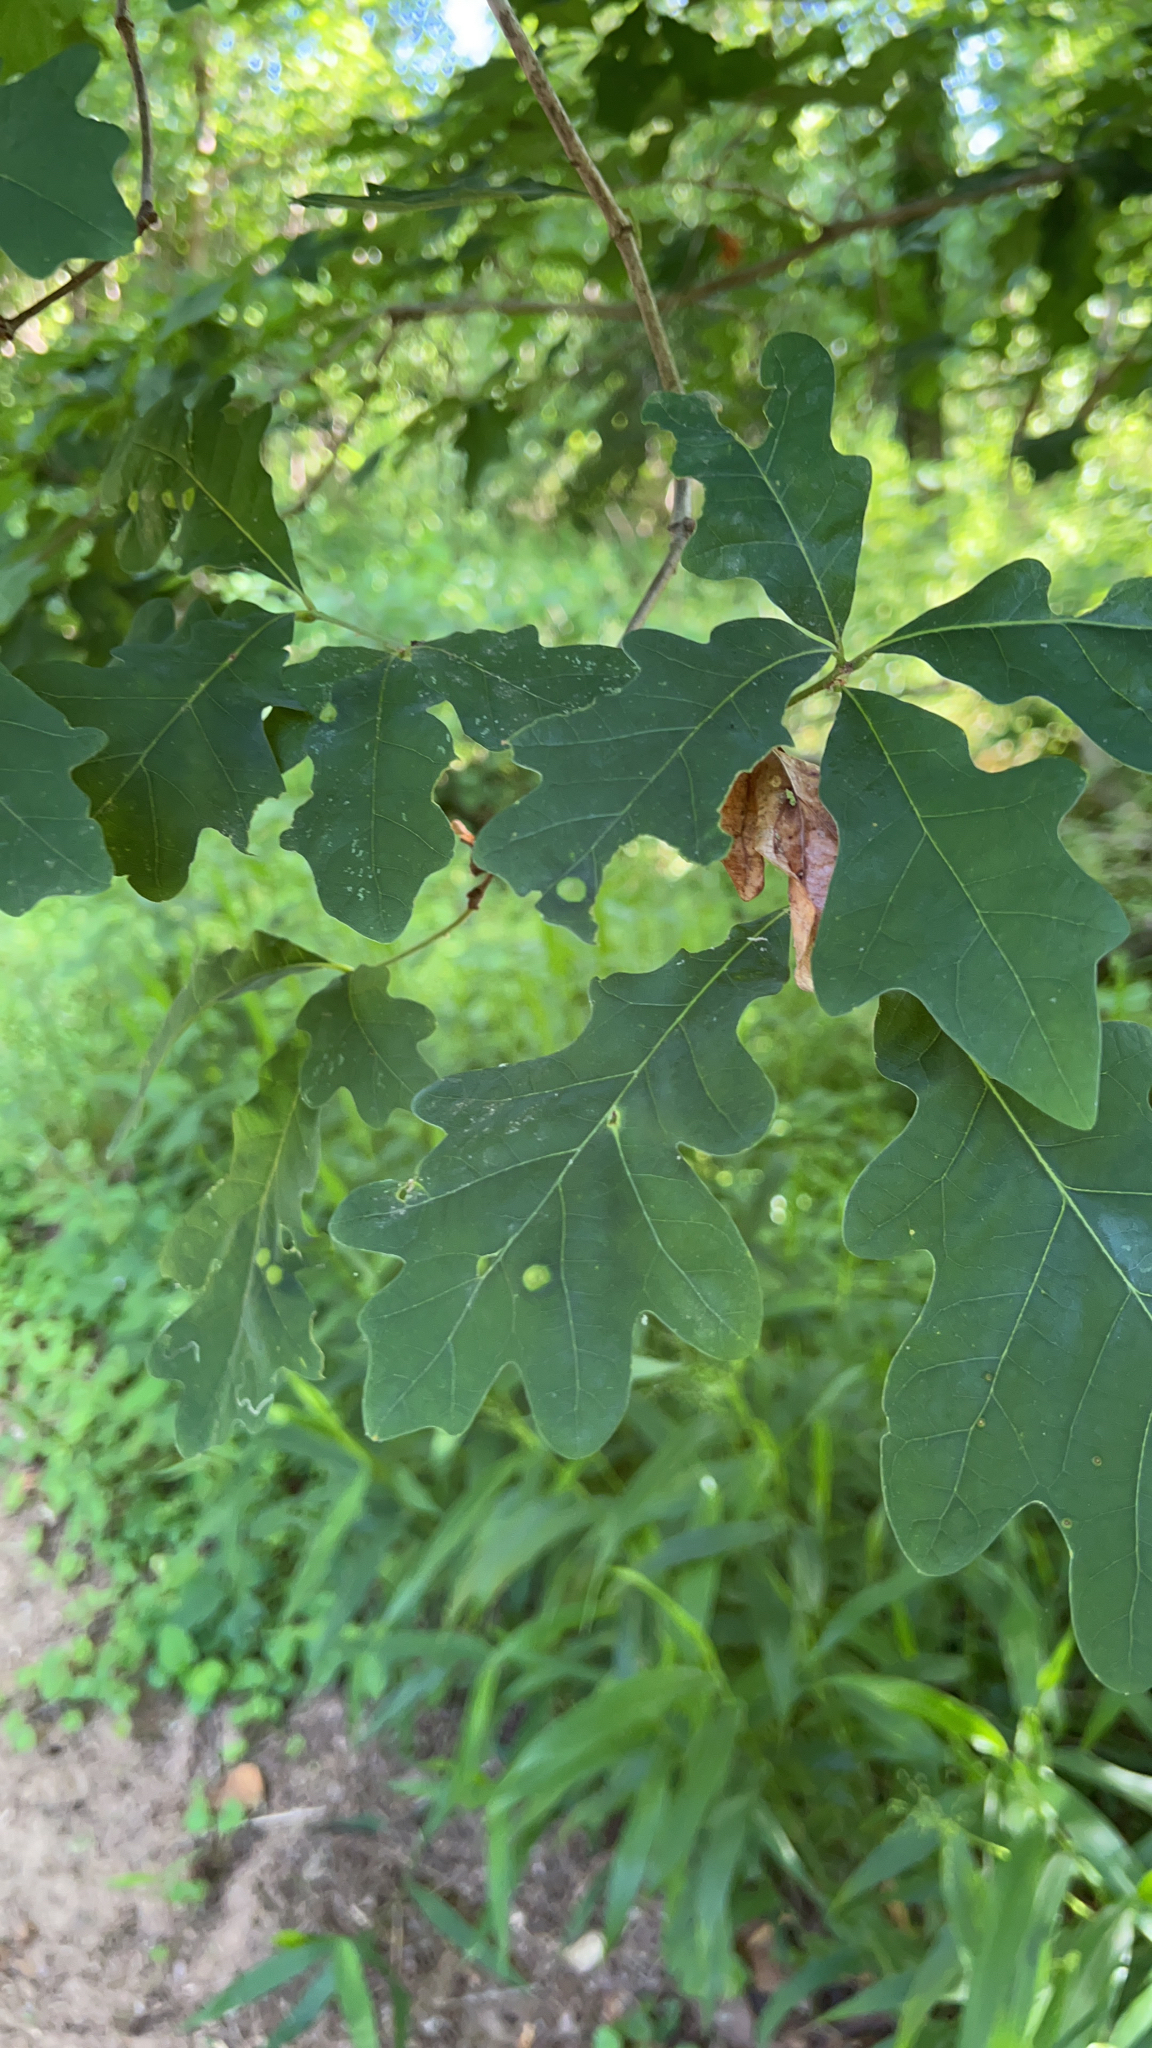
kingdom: Plantae
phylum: Tracheophyta
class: Magnoliopsida
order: Fagales
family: Fagaceae
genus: Quercus
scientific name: Quercus alba
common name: White oak
